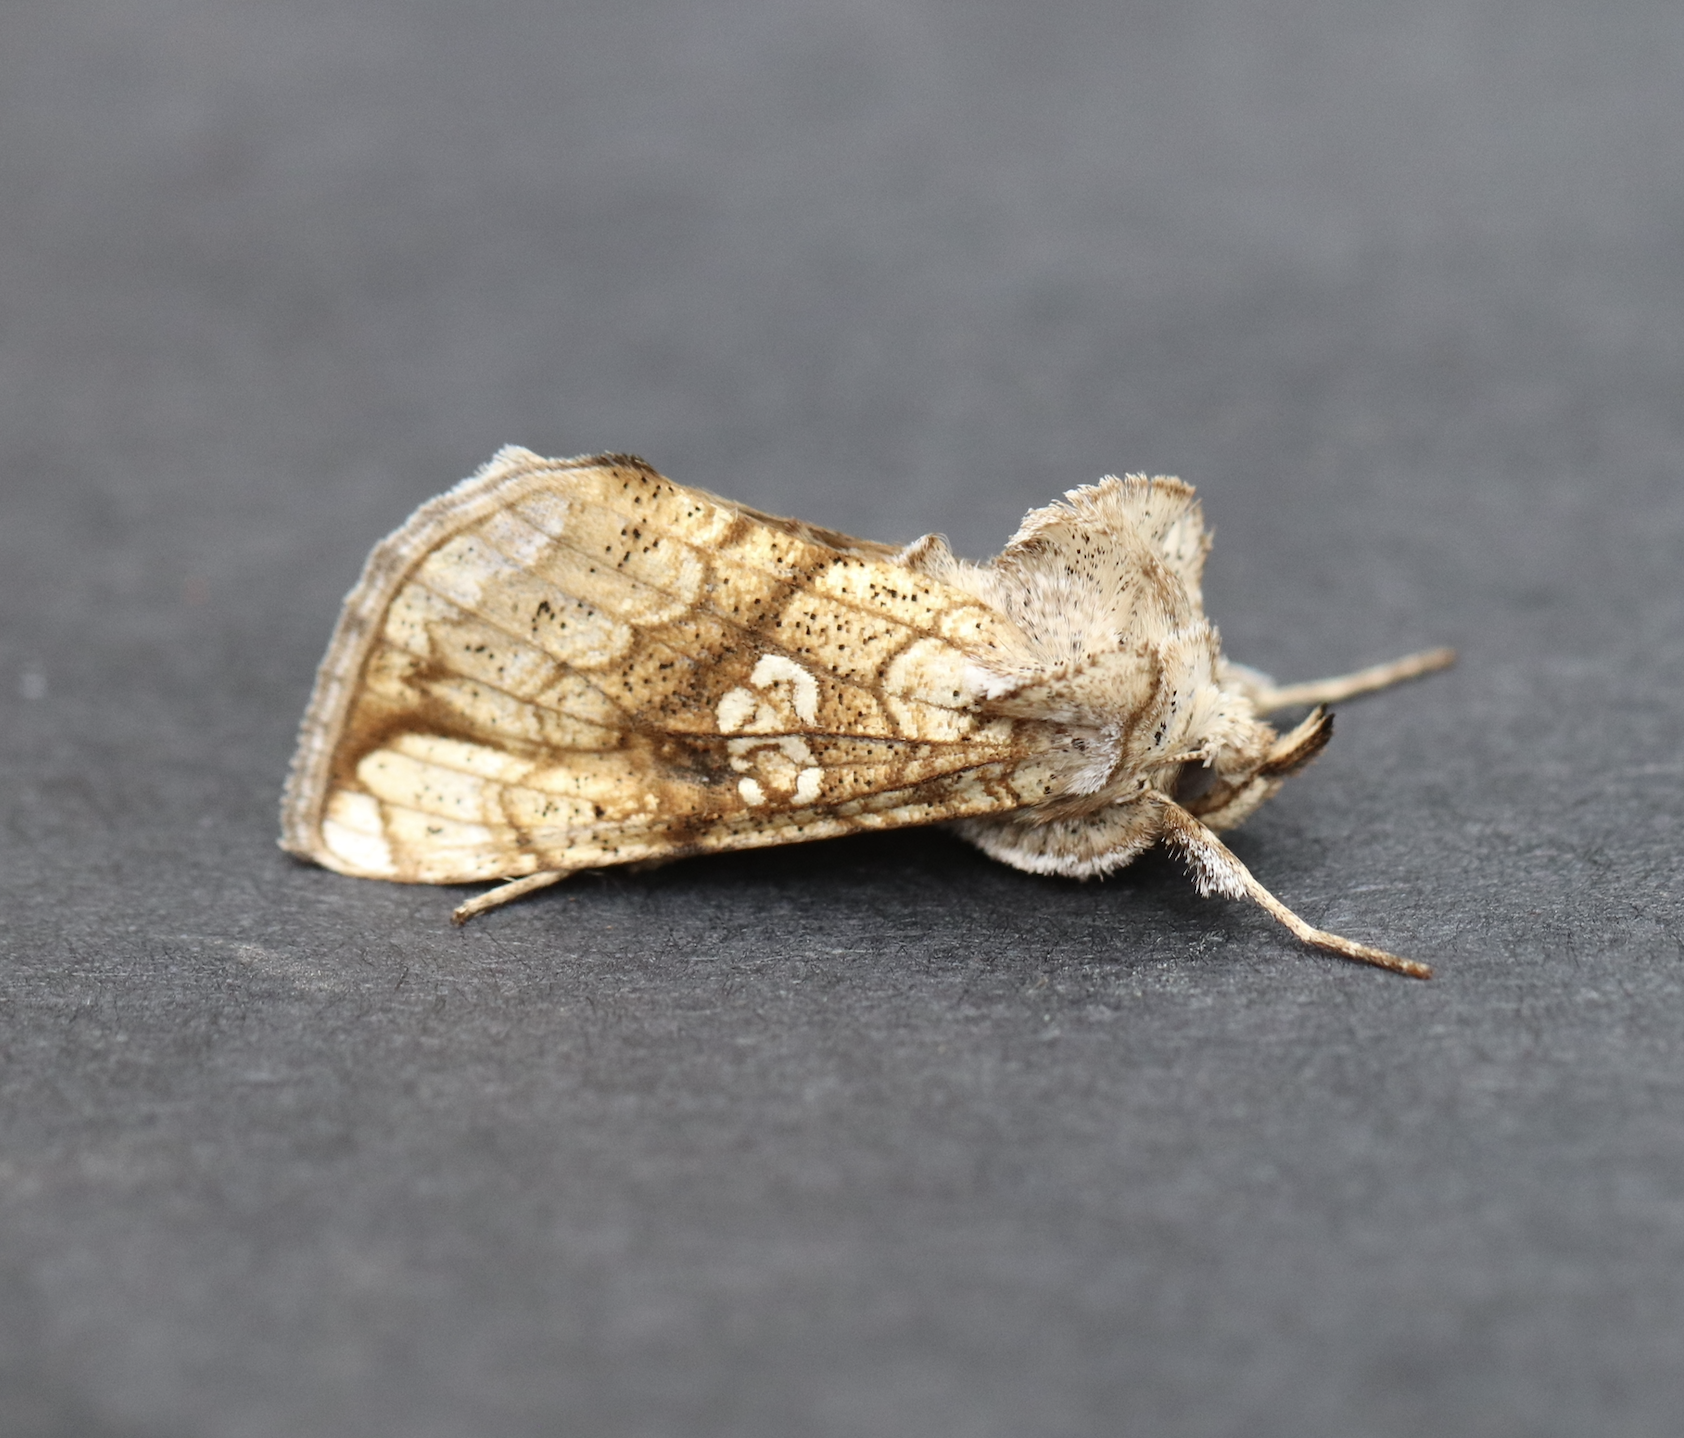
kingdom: Animalia
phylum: Arthropoda
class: Insecta
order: Lepidoptera
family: Noctuidae
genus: Polychrysia
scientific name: Polychrysia esmeralda
